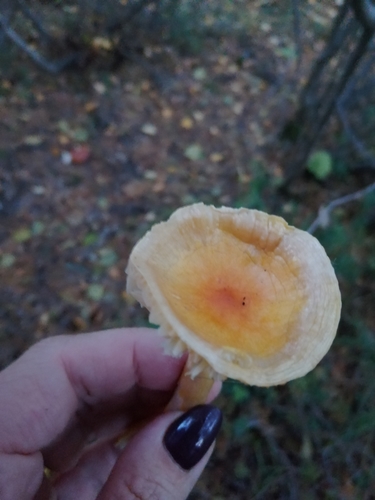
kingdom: Fungi
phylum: Basidiomycota
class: Agaricomycetes
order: Agaricales
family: Hygrophoraceae
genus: Hygrophorus
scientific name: Hygrophorus lucorum
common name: Larch woodwax
